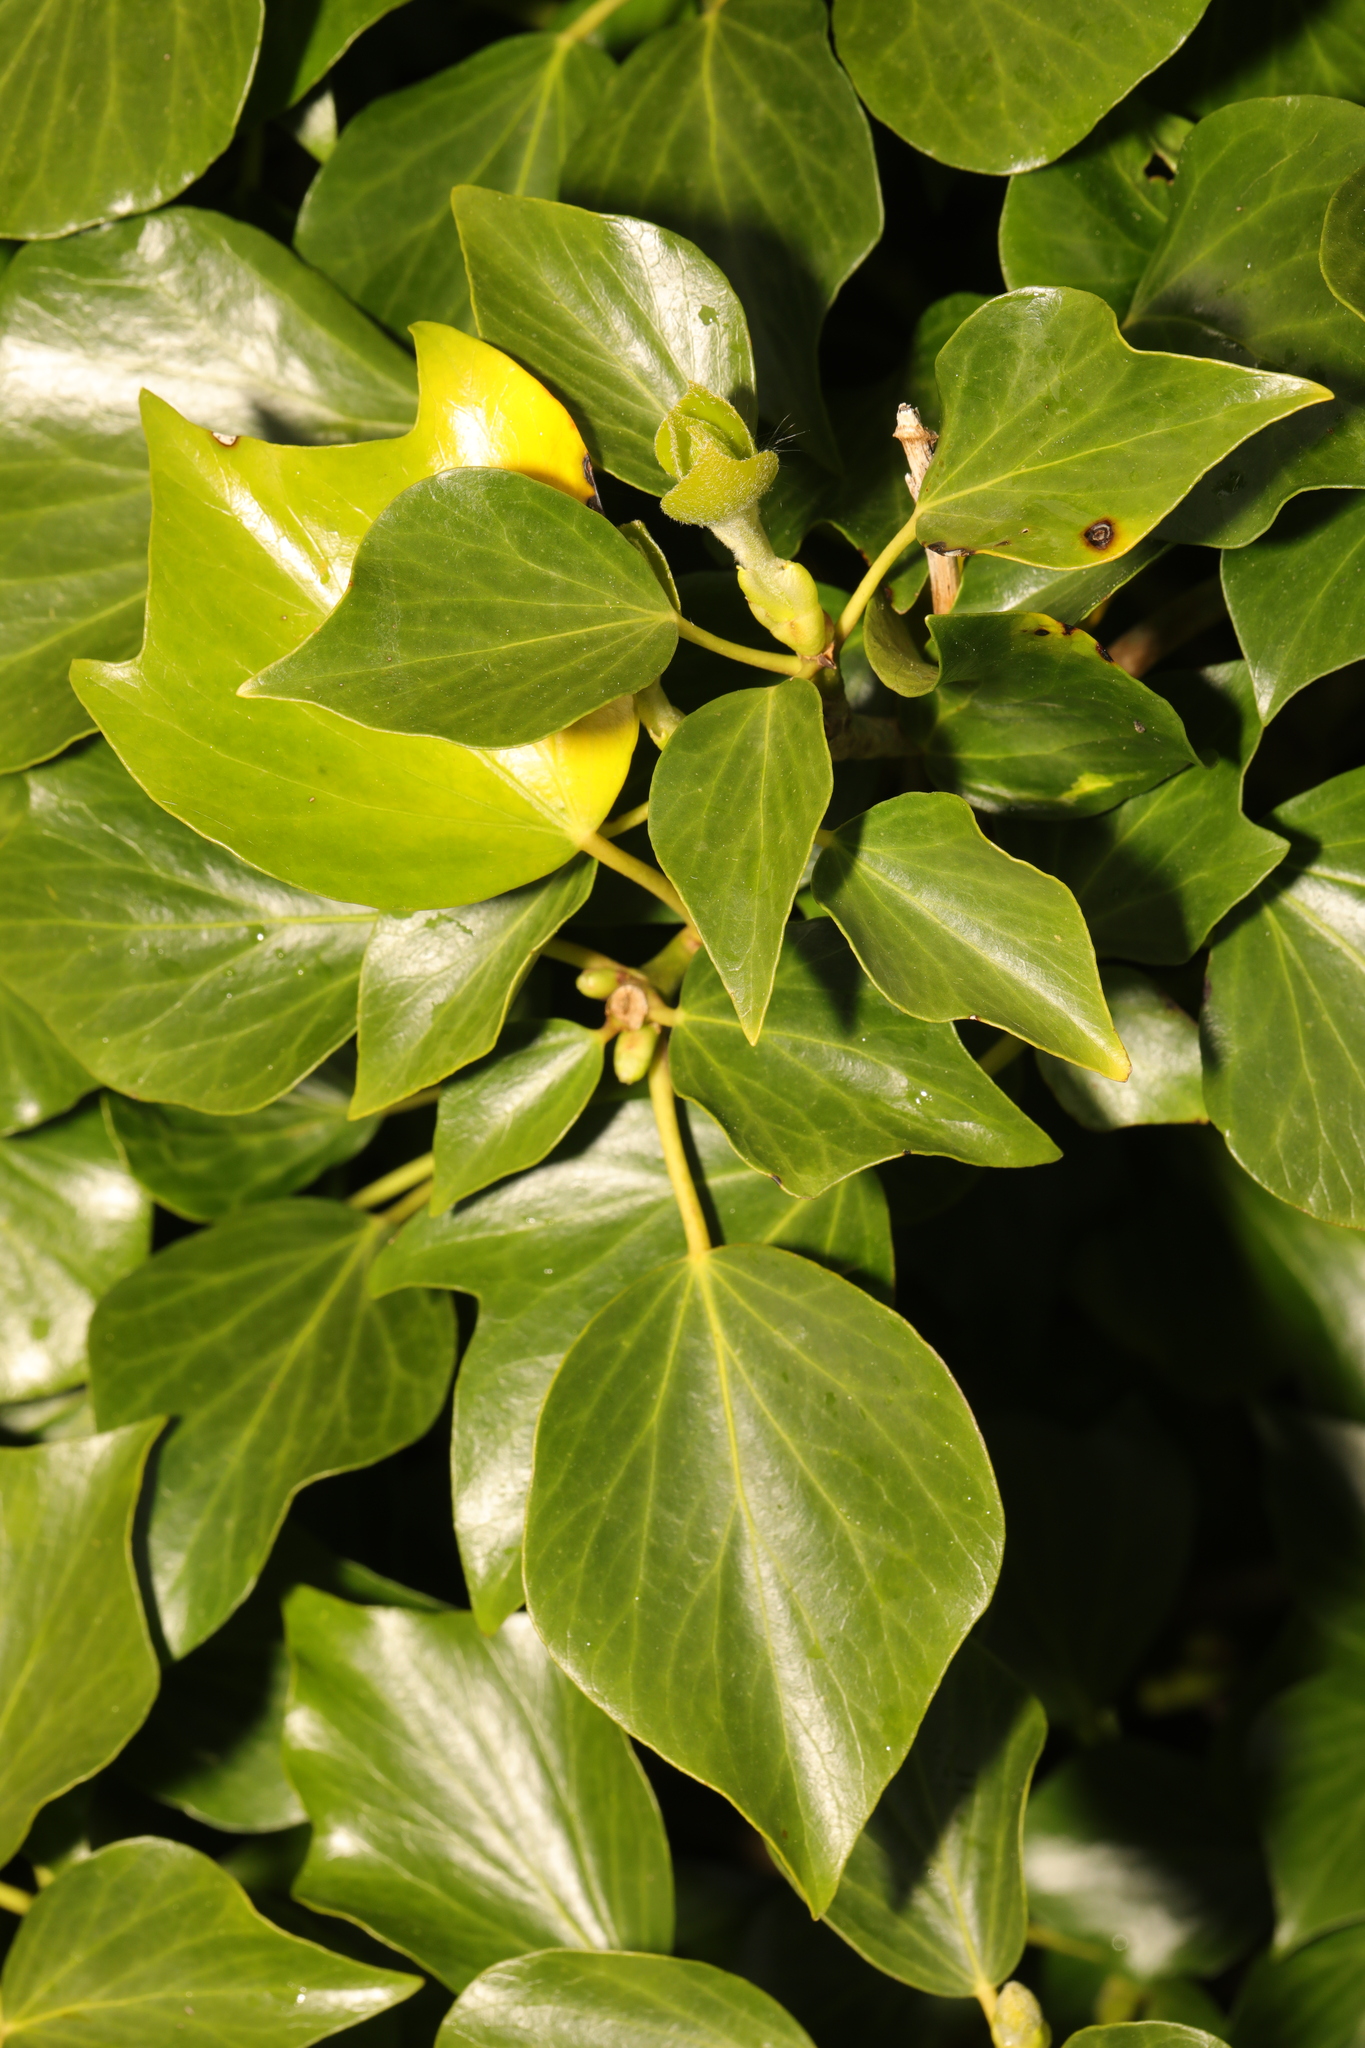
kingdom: Plantae
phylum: Tracheophyta
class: Magnoliopsida
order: Apiales
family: Araliaceae
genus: Hedera
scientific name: Hedera helix
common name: Ivy
